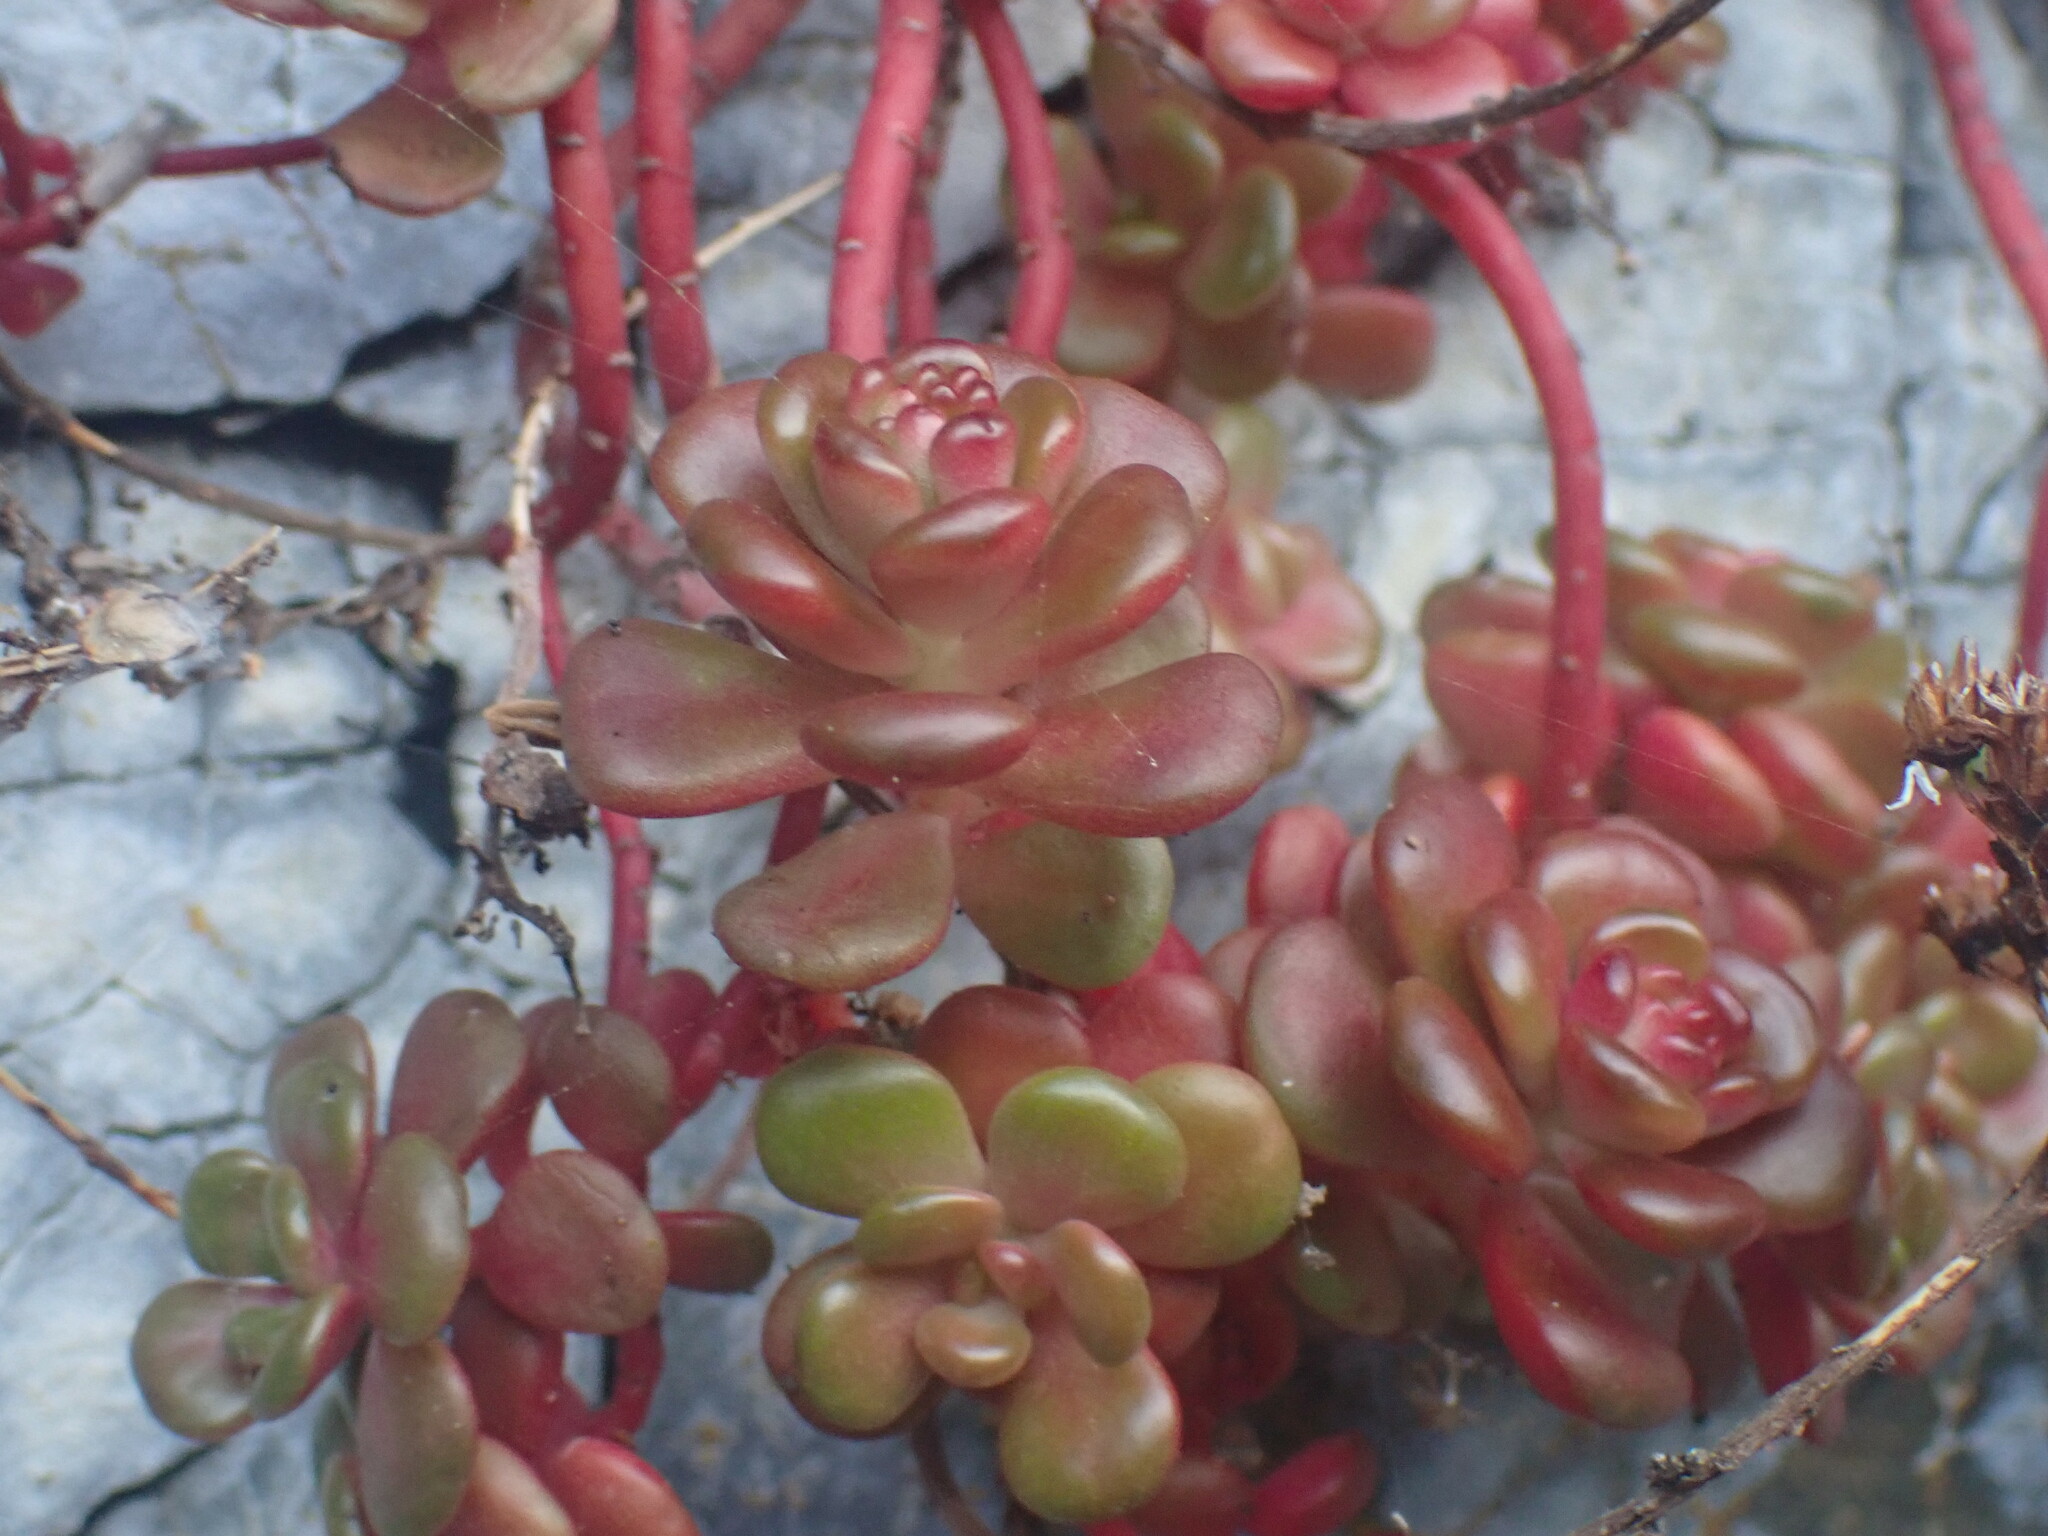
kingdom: Plantae
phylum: Tracheophyta
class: Magnoliopsida
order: Saxifragales
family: Crassulaceae
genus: Sedum
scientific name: Sedum oreganum
